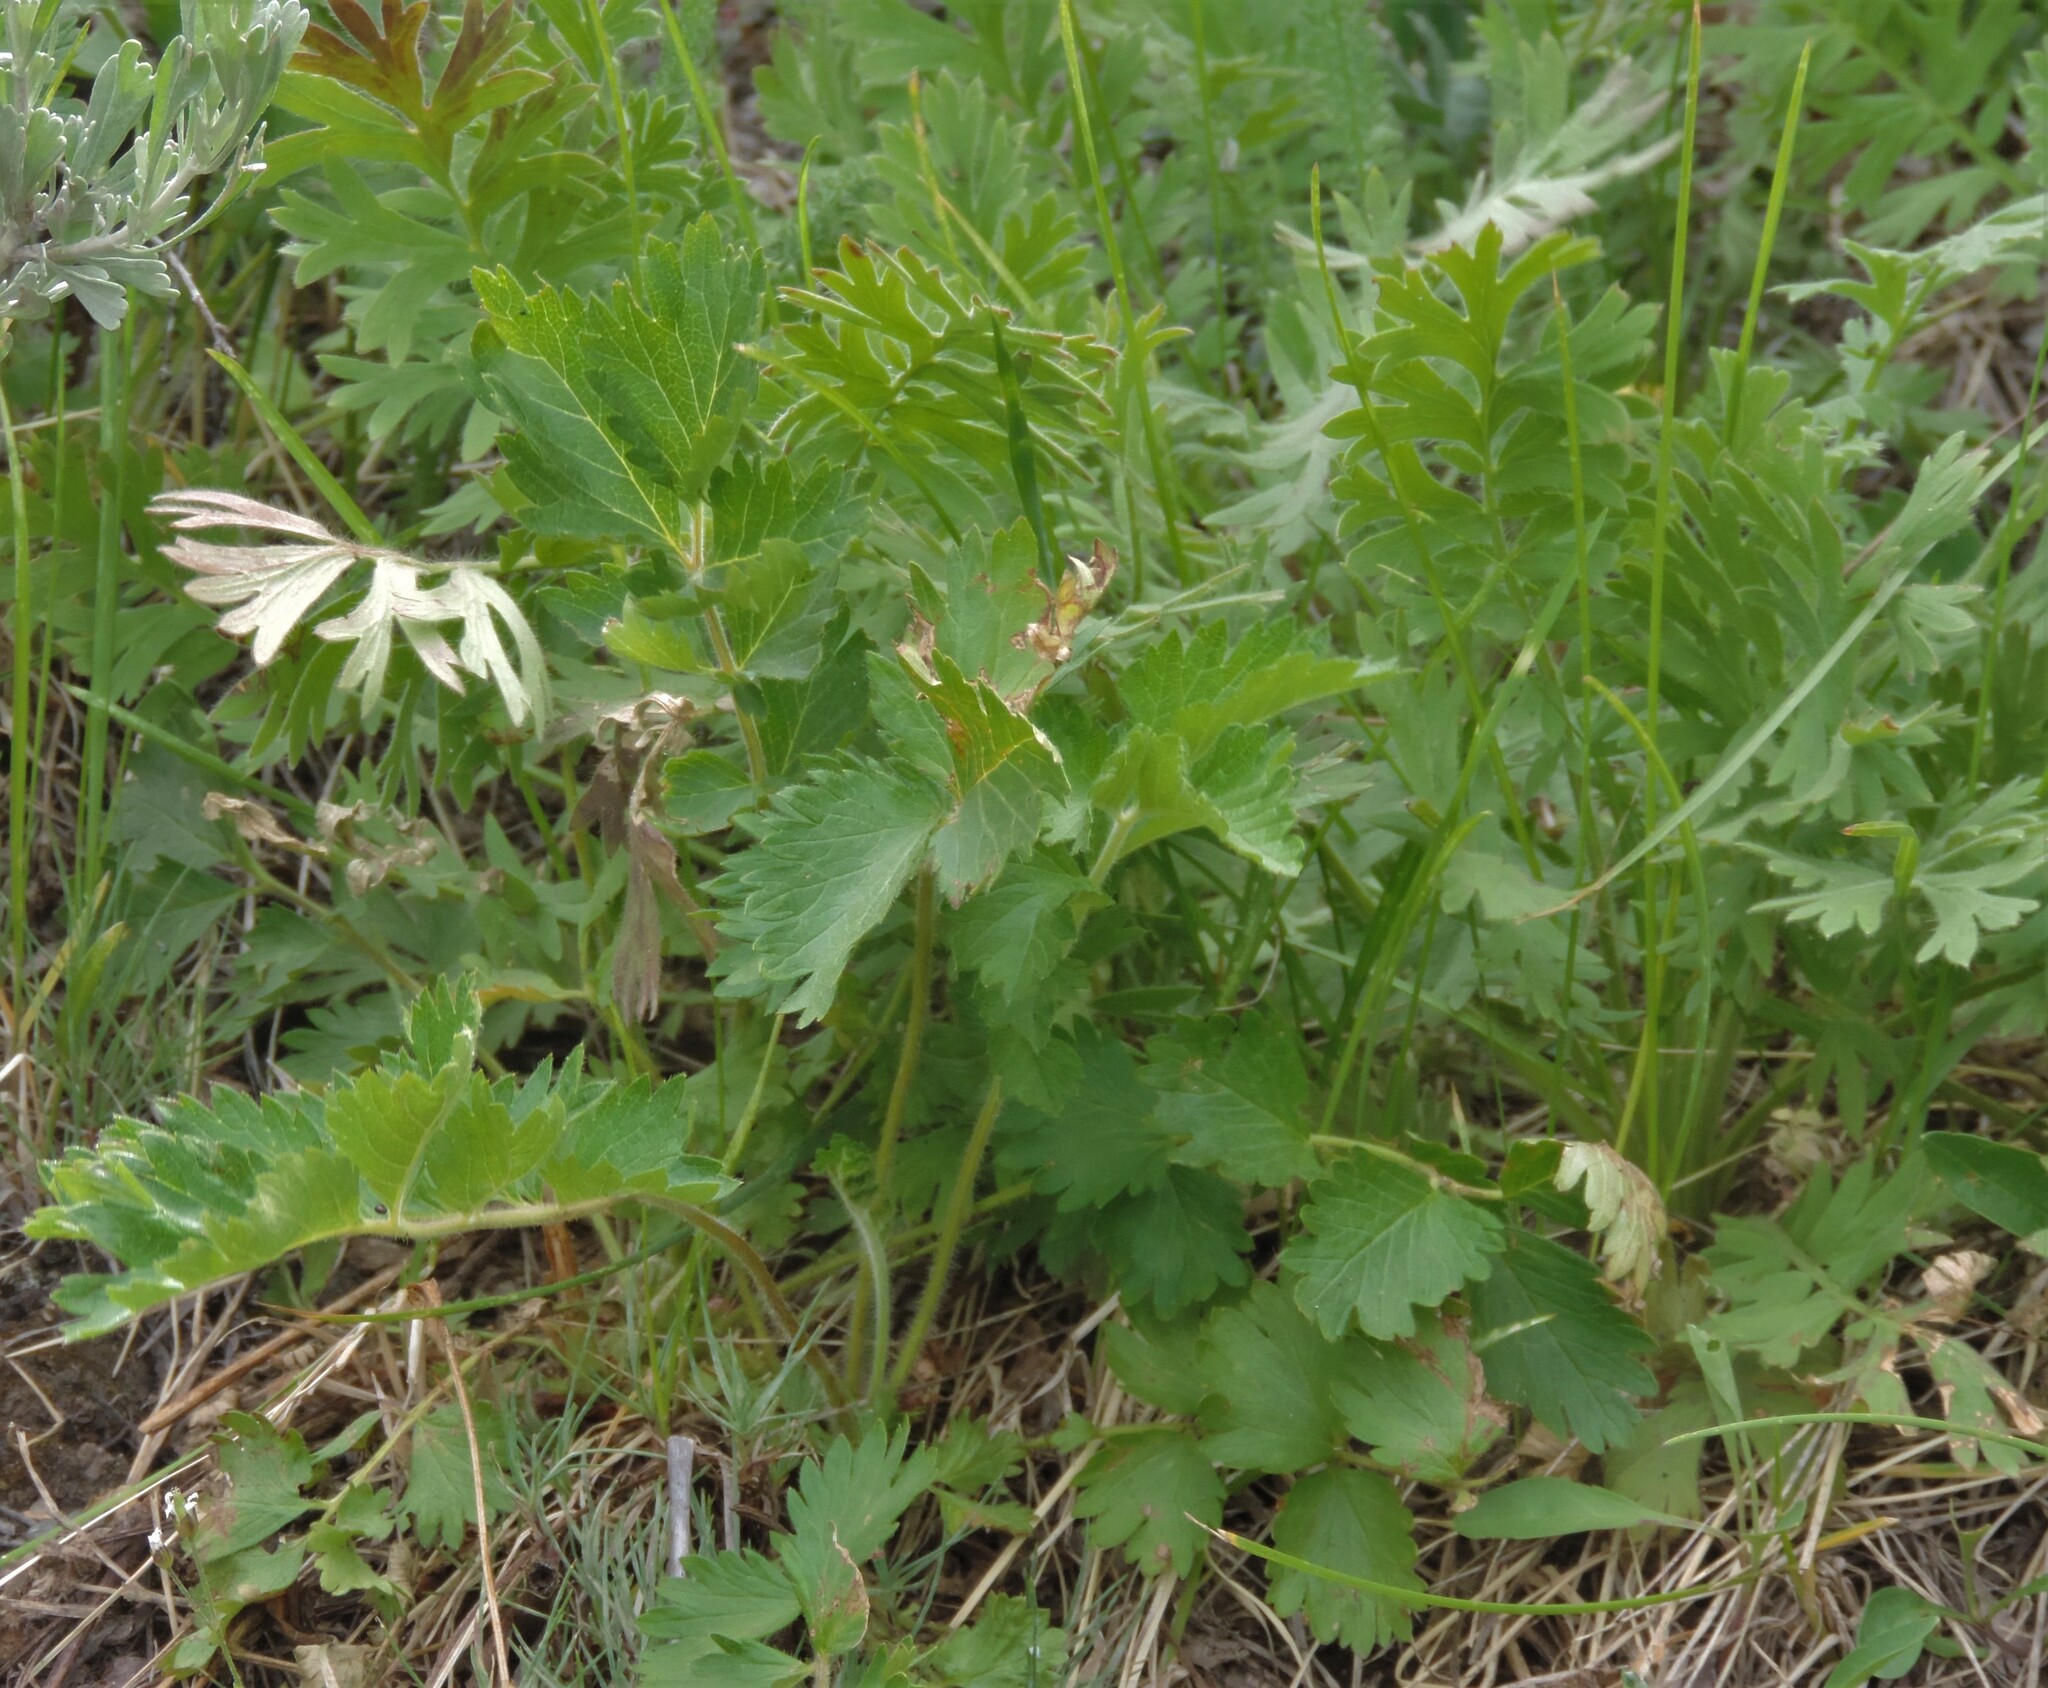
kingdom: Plantae
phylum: Tracheophyta
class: Magnoliopsida
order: Rosales
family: Rosaceae
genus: Geum
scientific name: Geum triflorum
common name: Old man's whiskers
